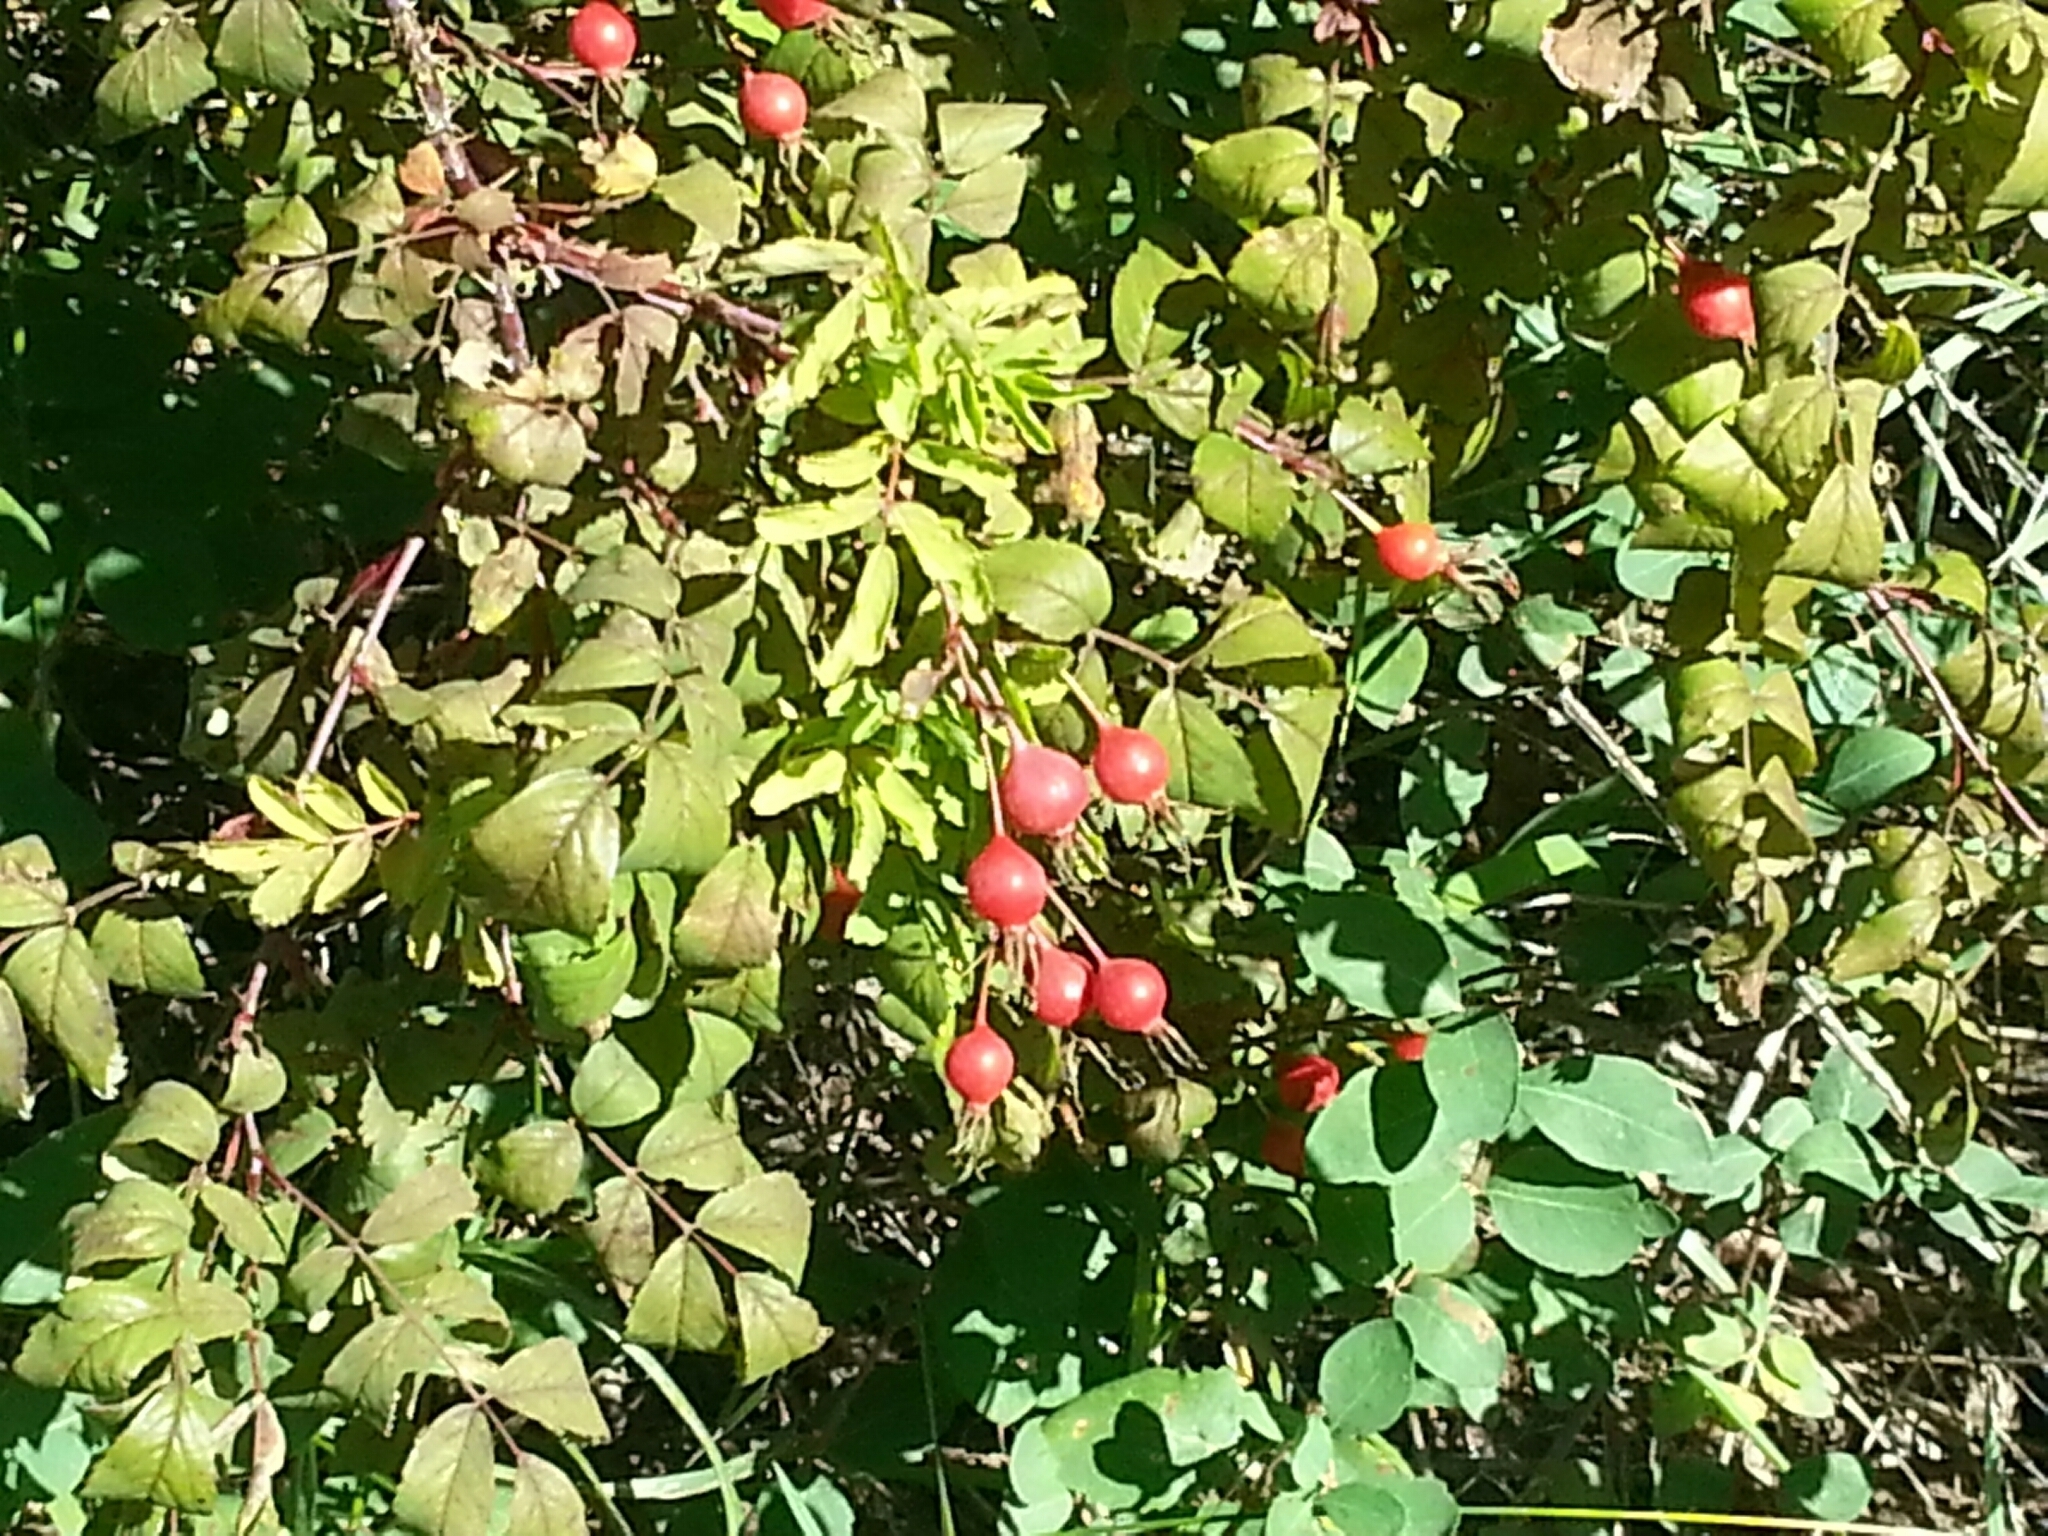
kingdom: Plantae
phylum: Tracheophyta
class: Magnoliopsida
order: Rosales
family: Rosaceae
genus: Rosa
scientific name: Rosa acicularis
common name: Prickly rose
